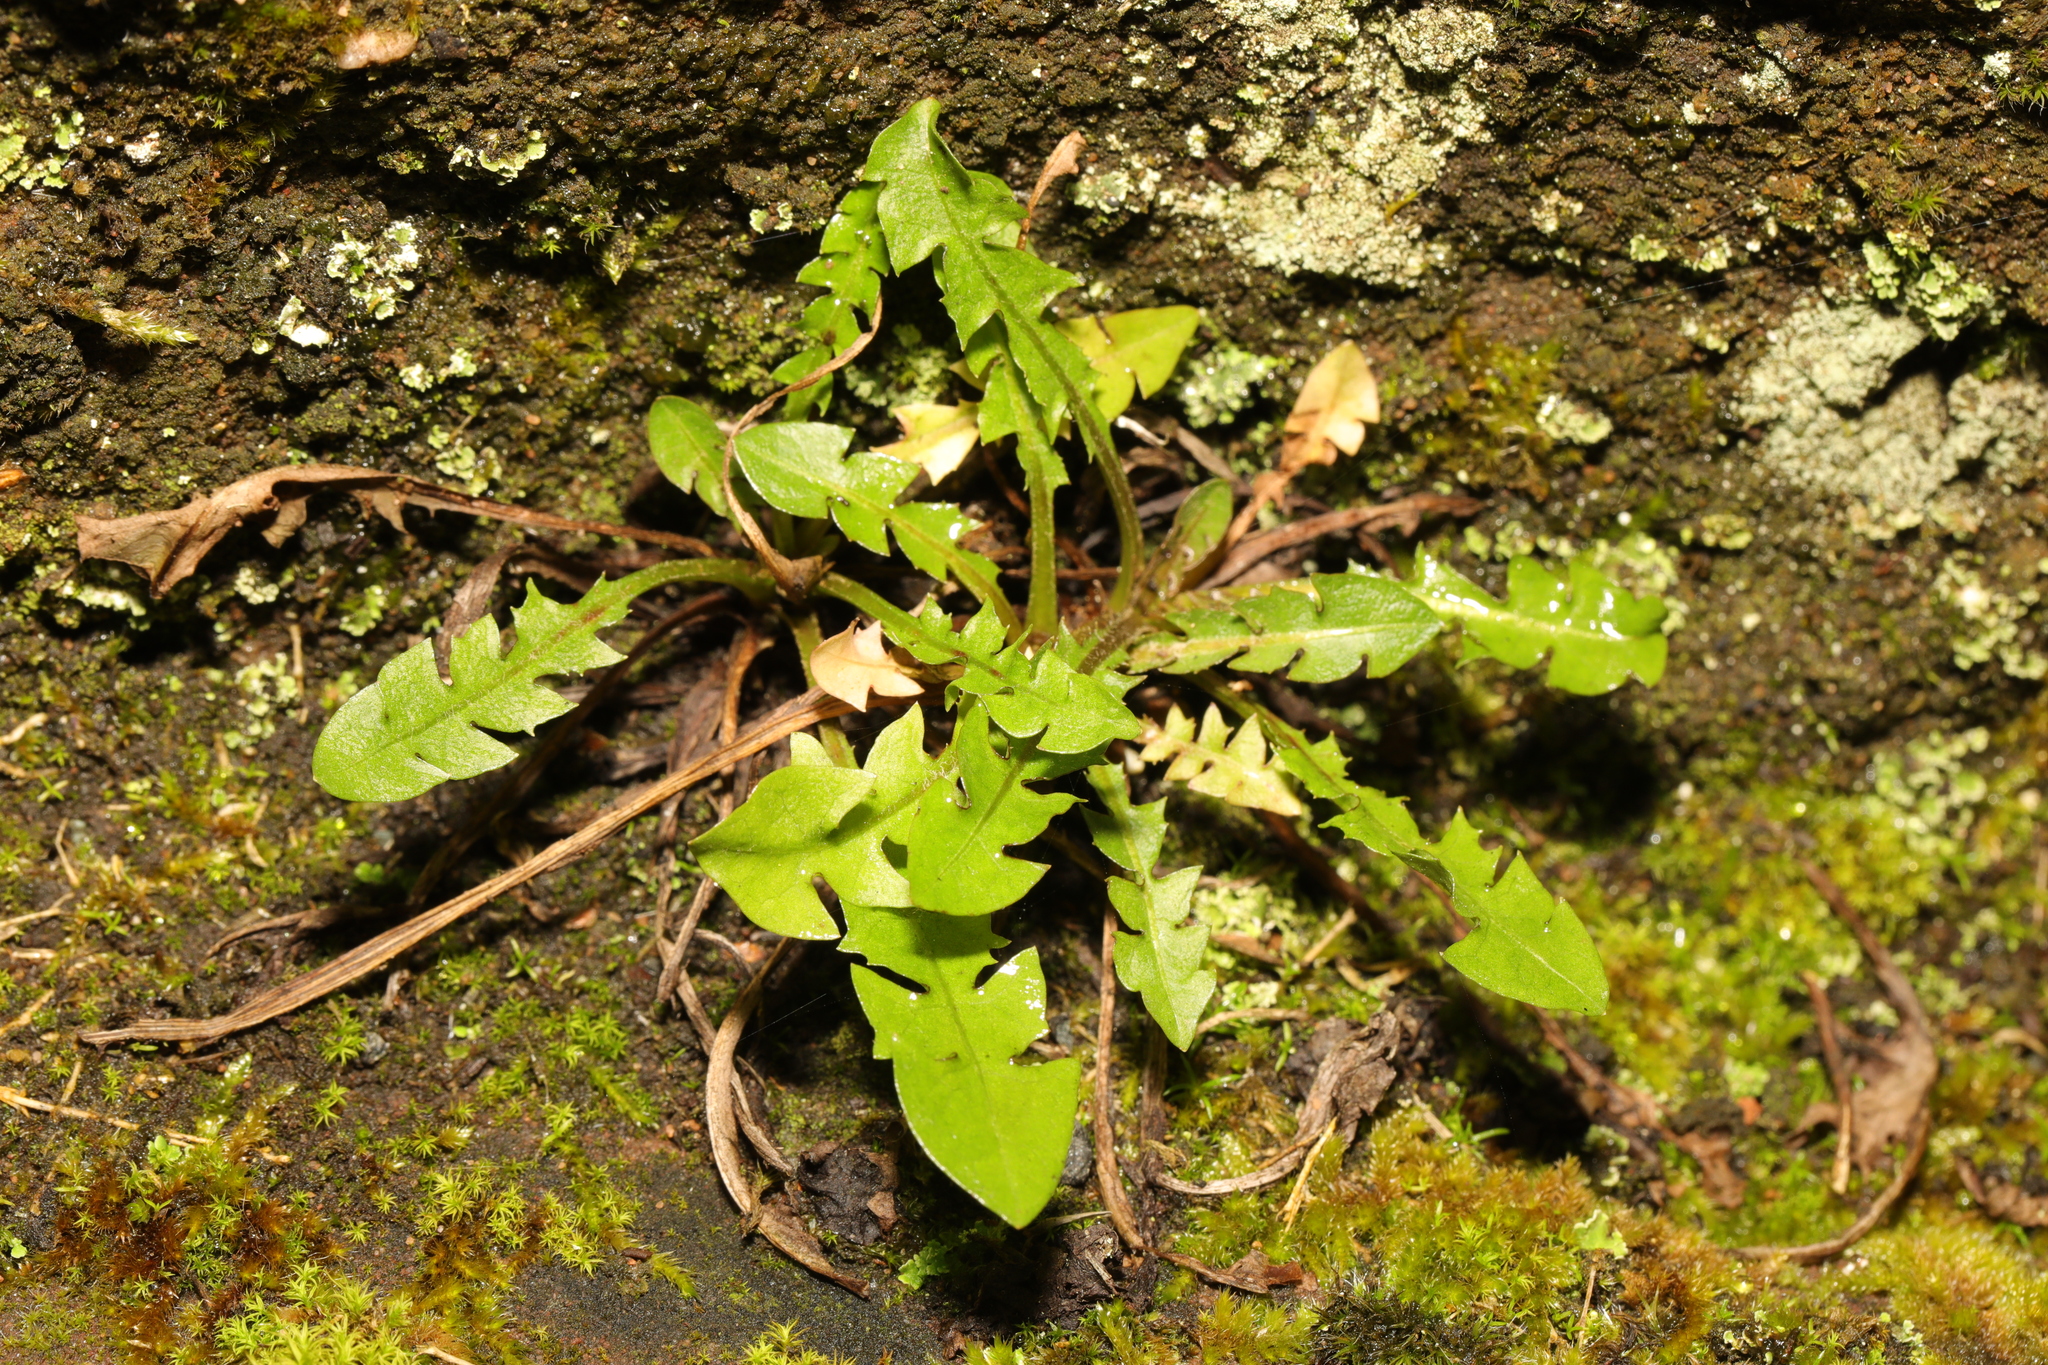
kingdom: Plantae
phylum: Tracheophyta
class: Magnoliopsida
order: Asterales
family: Asteraceae
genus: Taraxacum
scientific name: Taraxacum officinale
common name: Common dandelion
